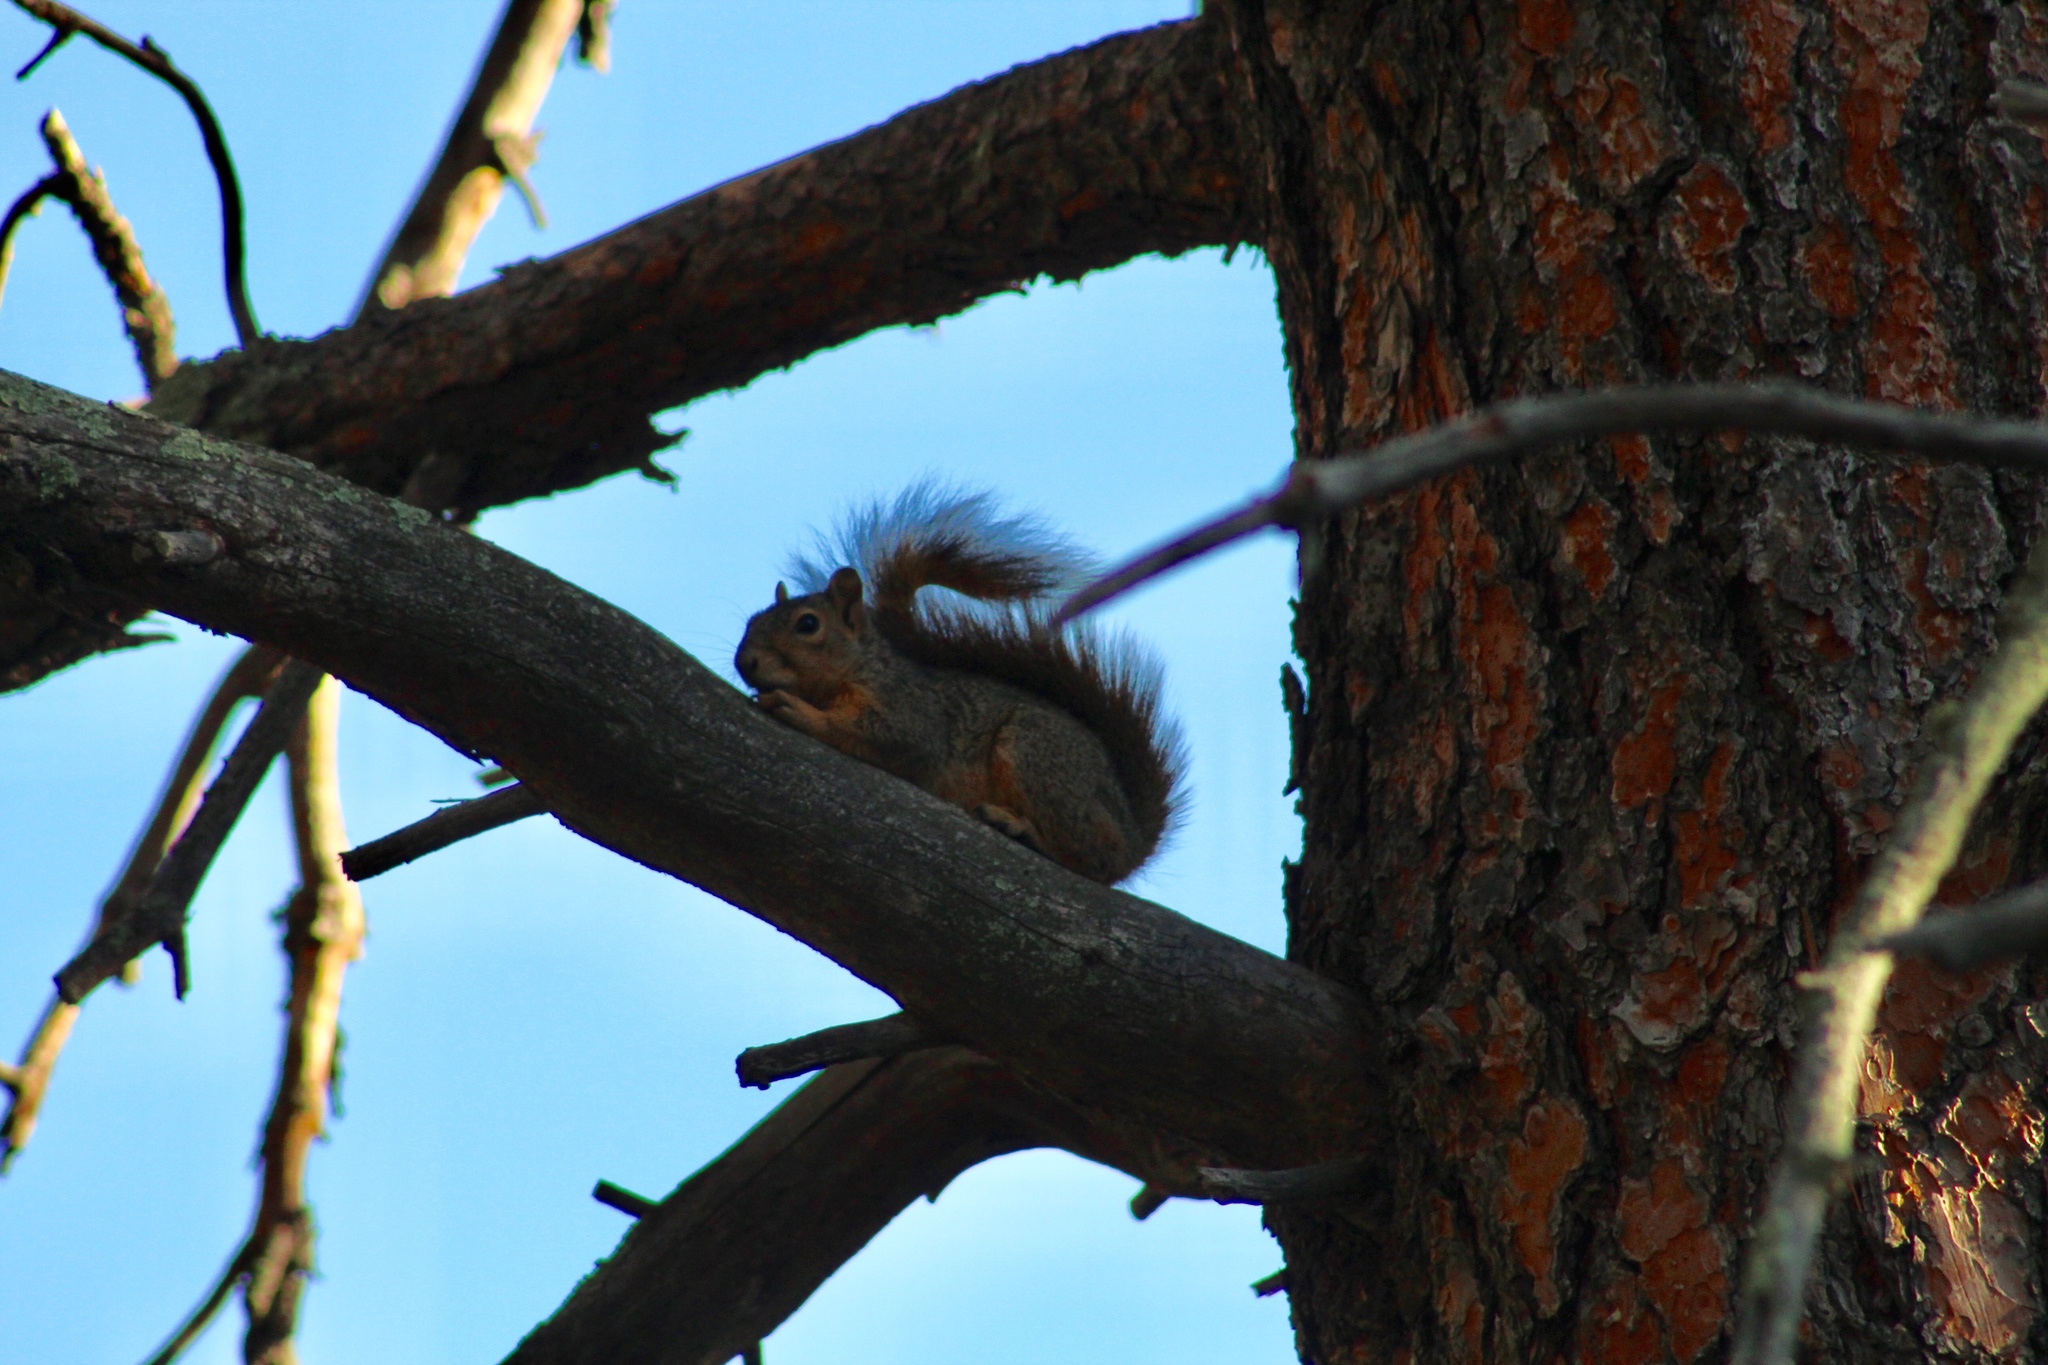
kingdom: Animalia
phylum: Chordata
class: Mammalia
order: Rodentia
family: Sciuridae
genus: Sciurus
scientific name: Sciurus niger
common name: Fox squirrel
